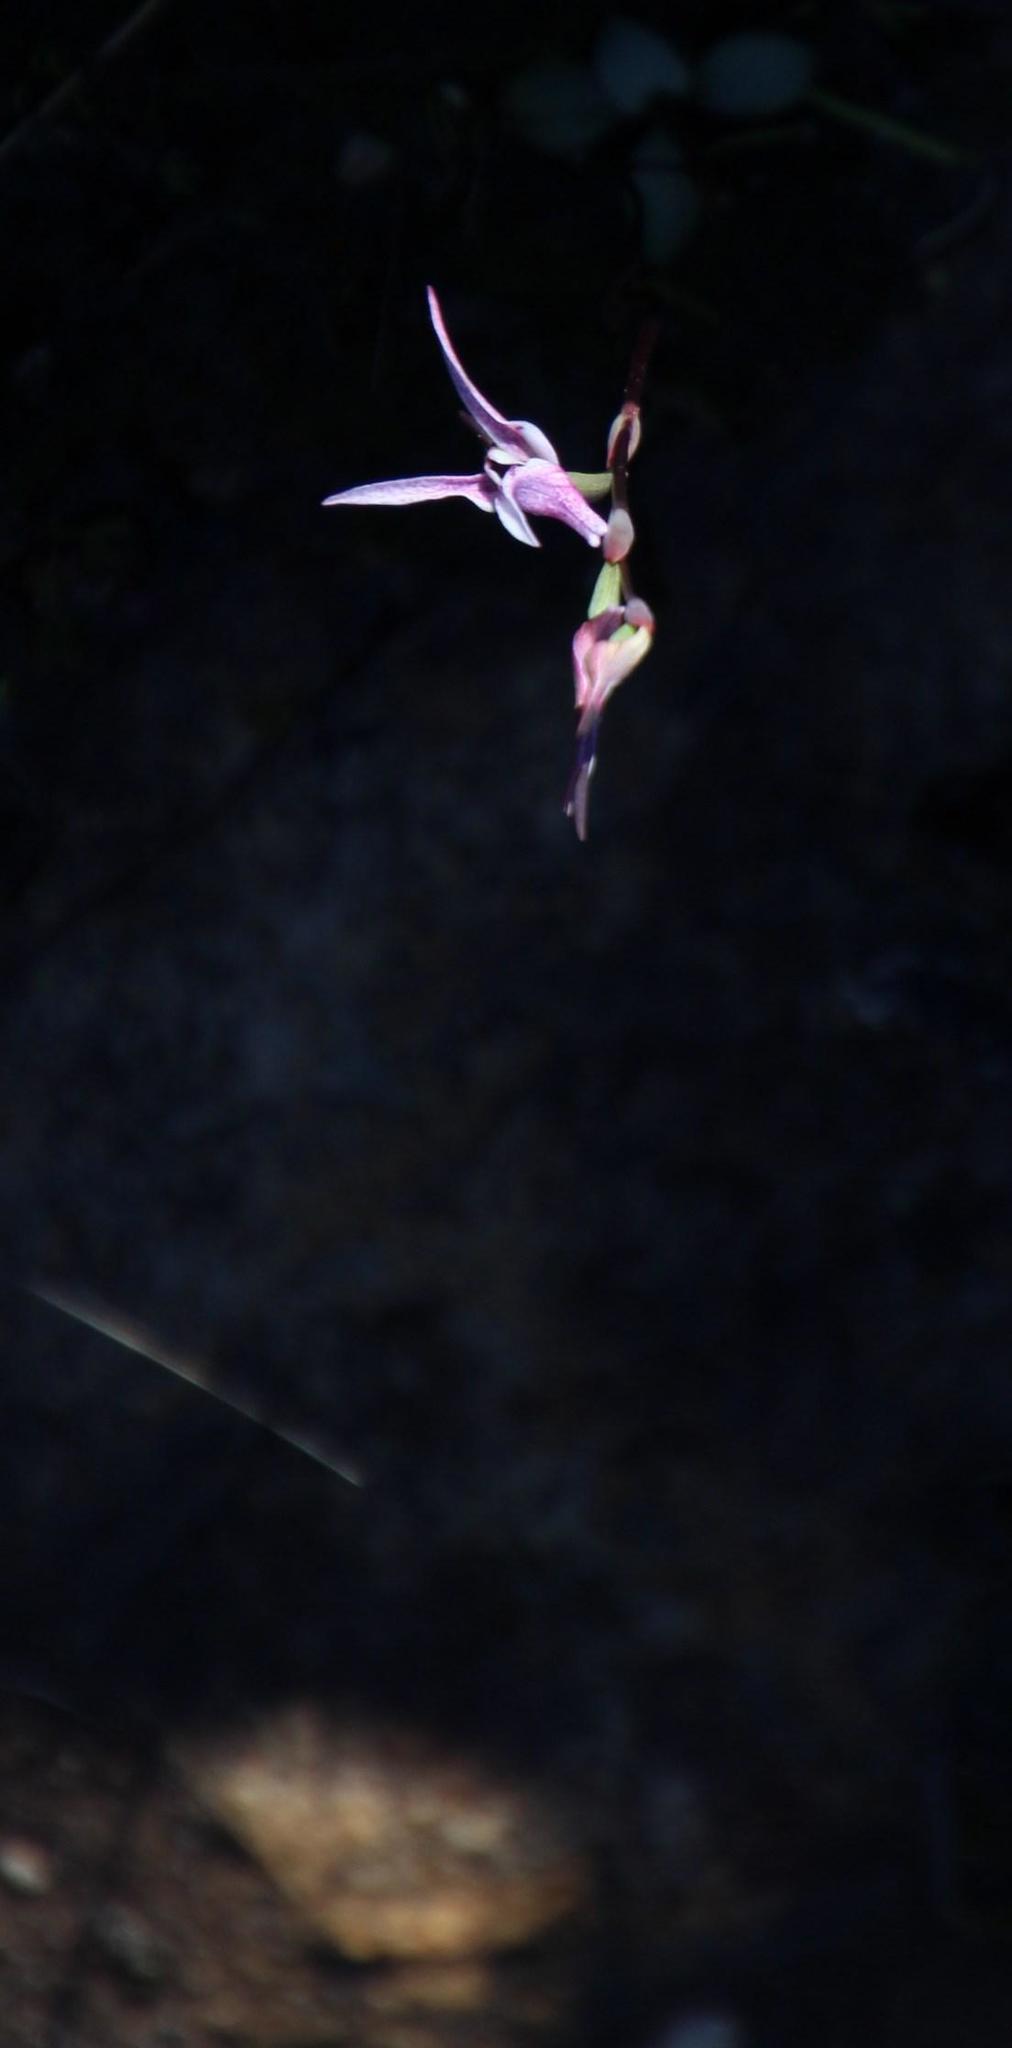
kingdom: Plantae
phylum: Tracheophyta
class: Liliopsida
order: Asparagales
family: Orchidaceae
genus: Disa
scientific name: Disa biflora
